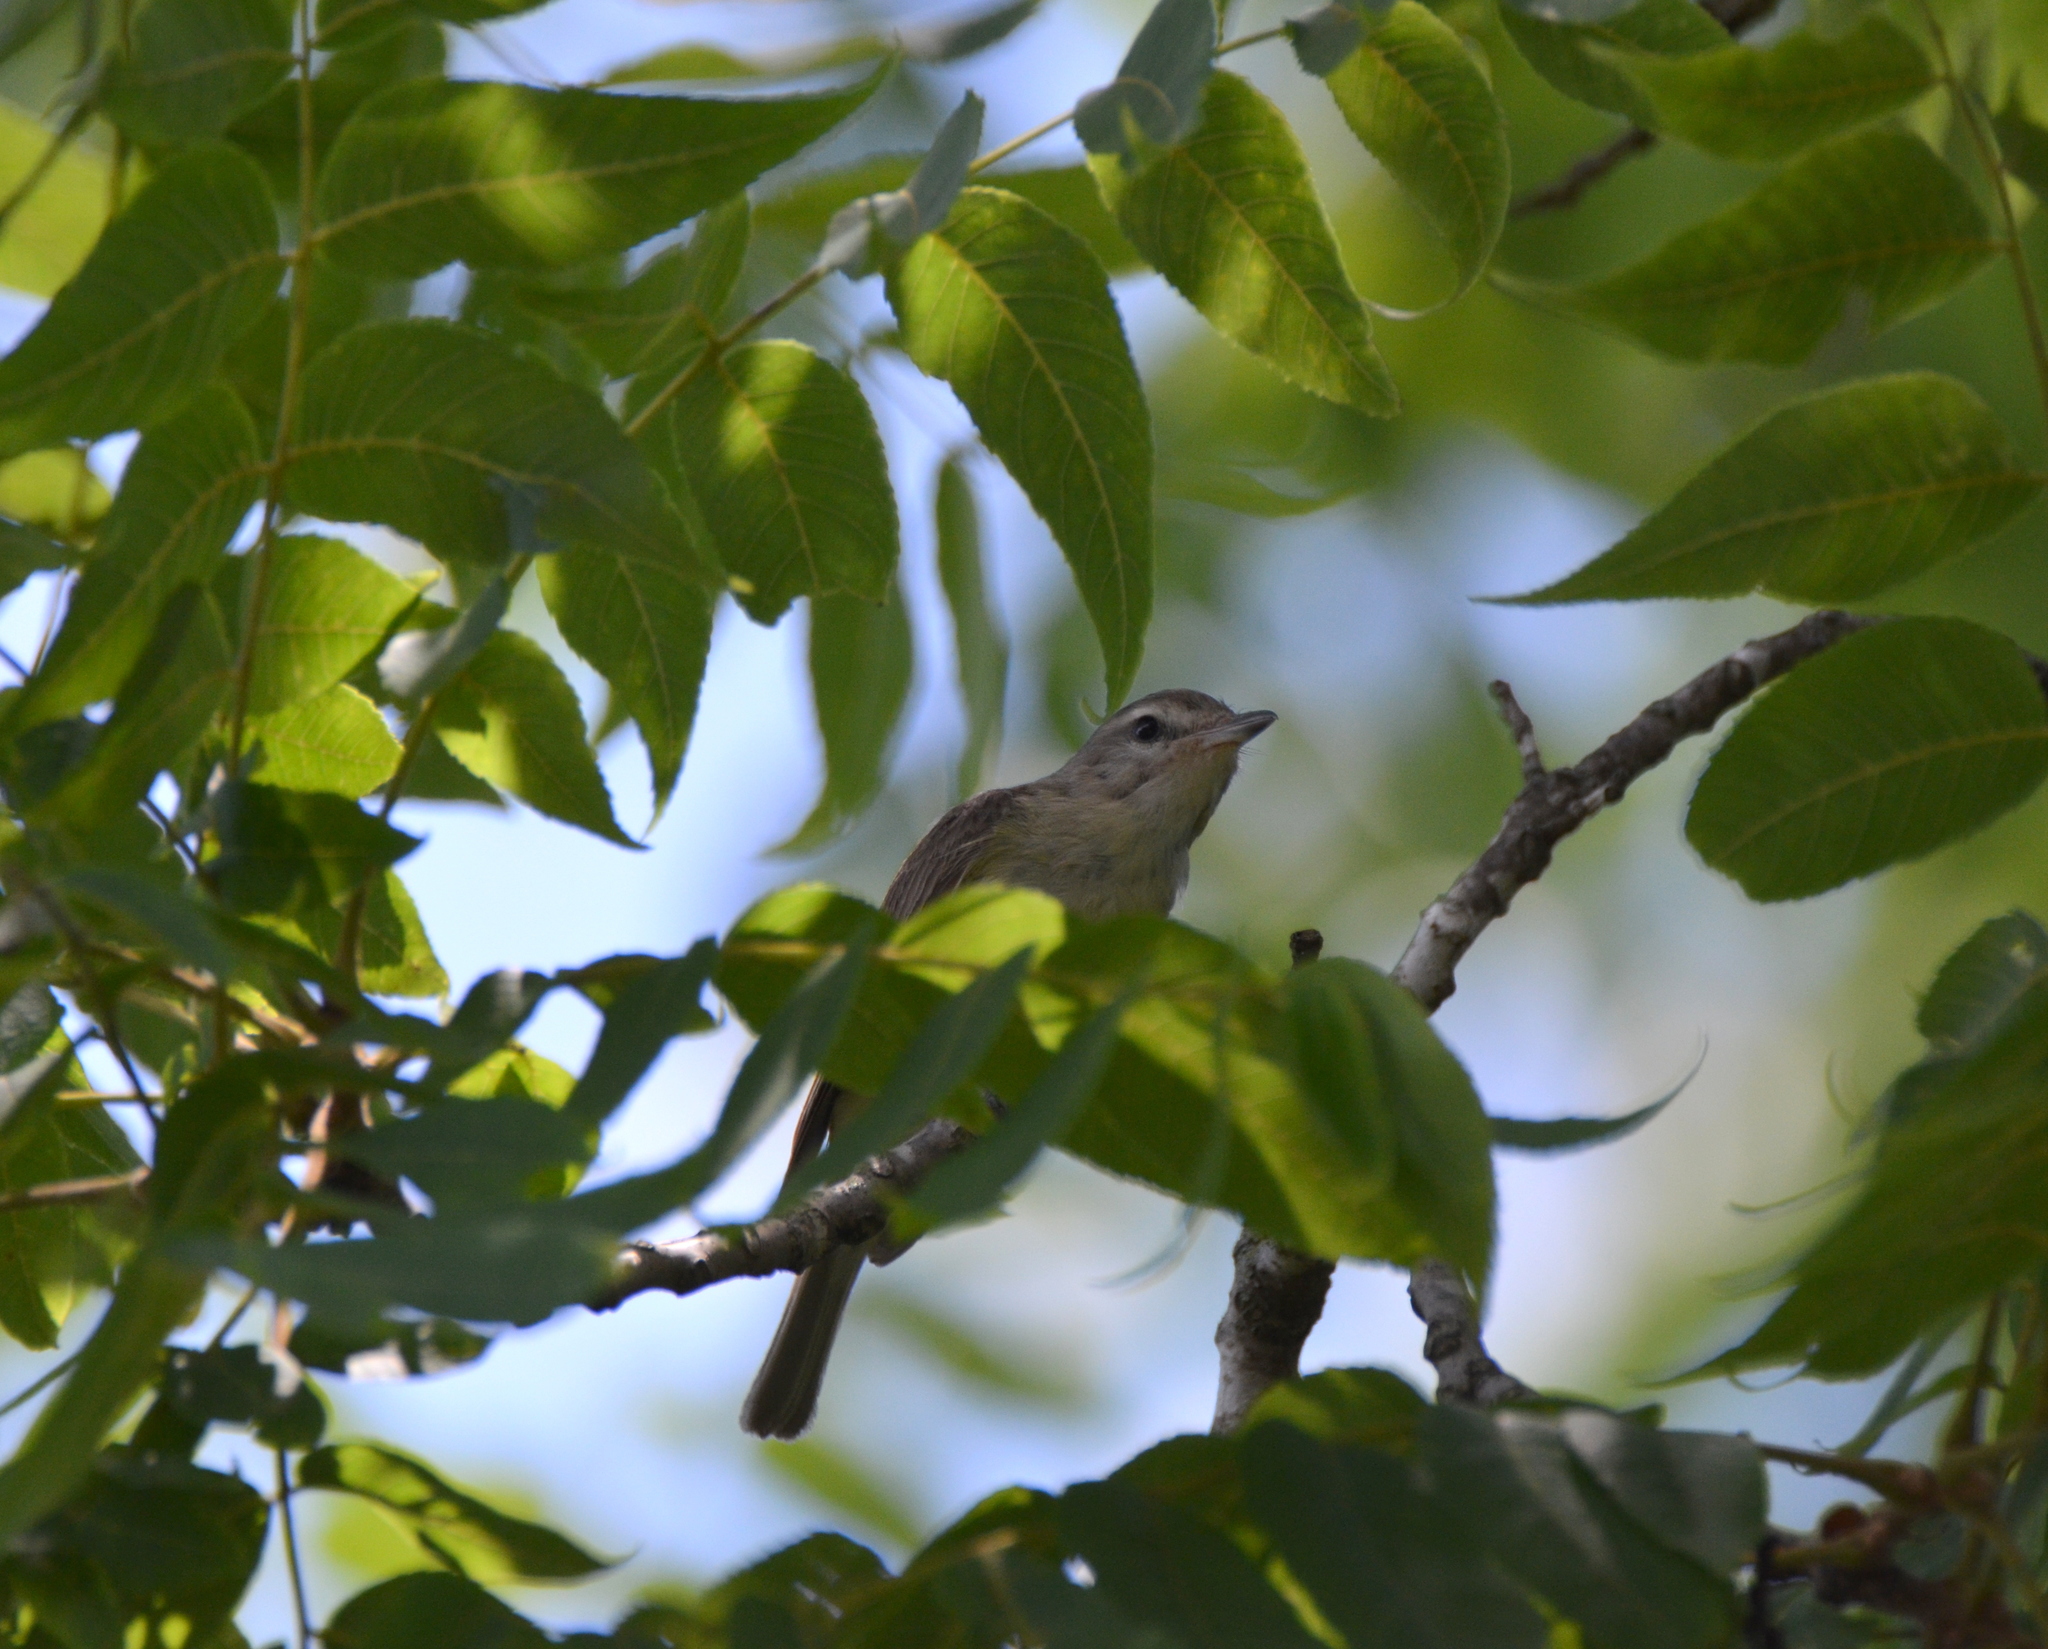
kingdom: Animalia
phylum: Chordata
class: Aves
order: Passeriformes
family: Vireonidae
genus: Vireo
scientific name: Vireo gilvus
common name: Warbling vireo
